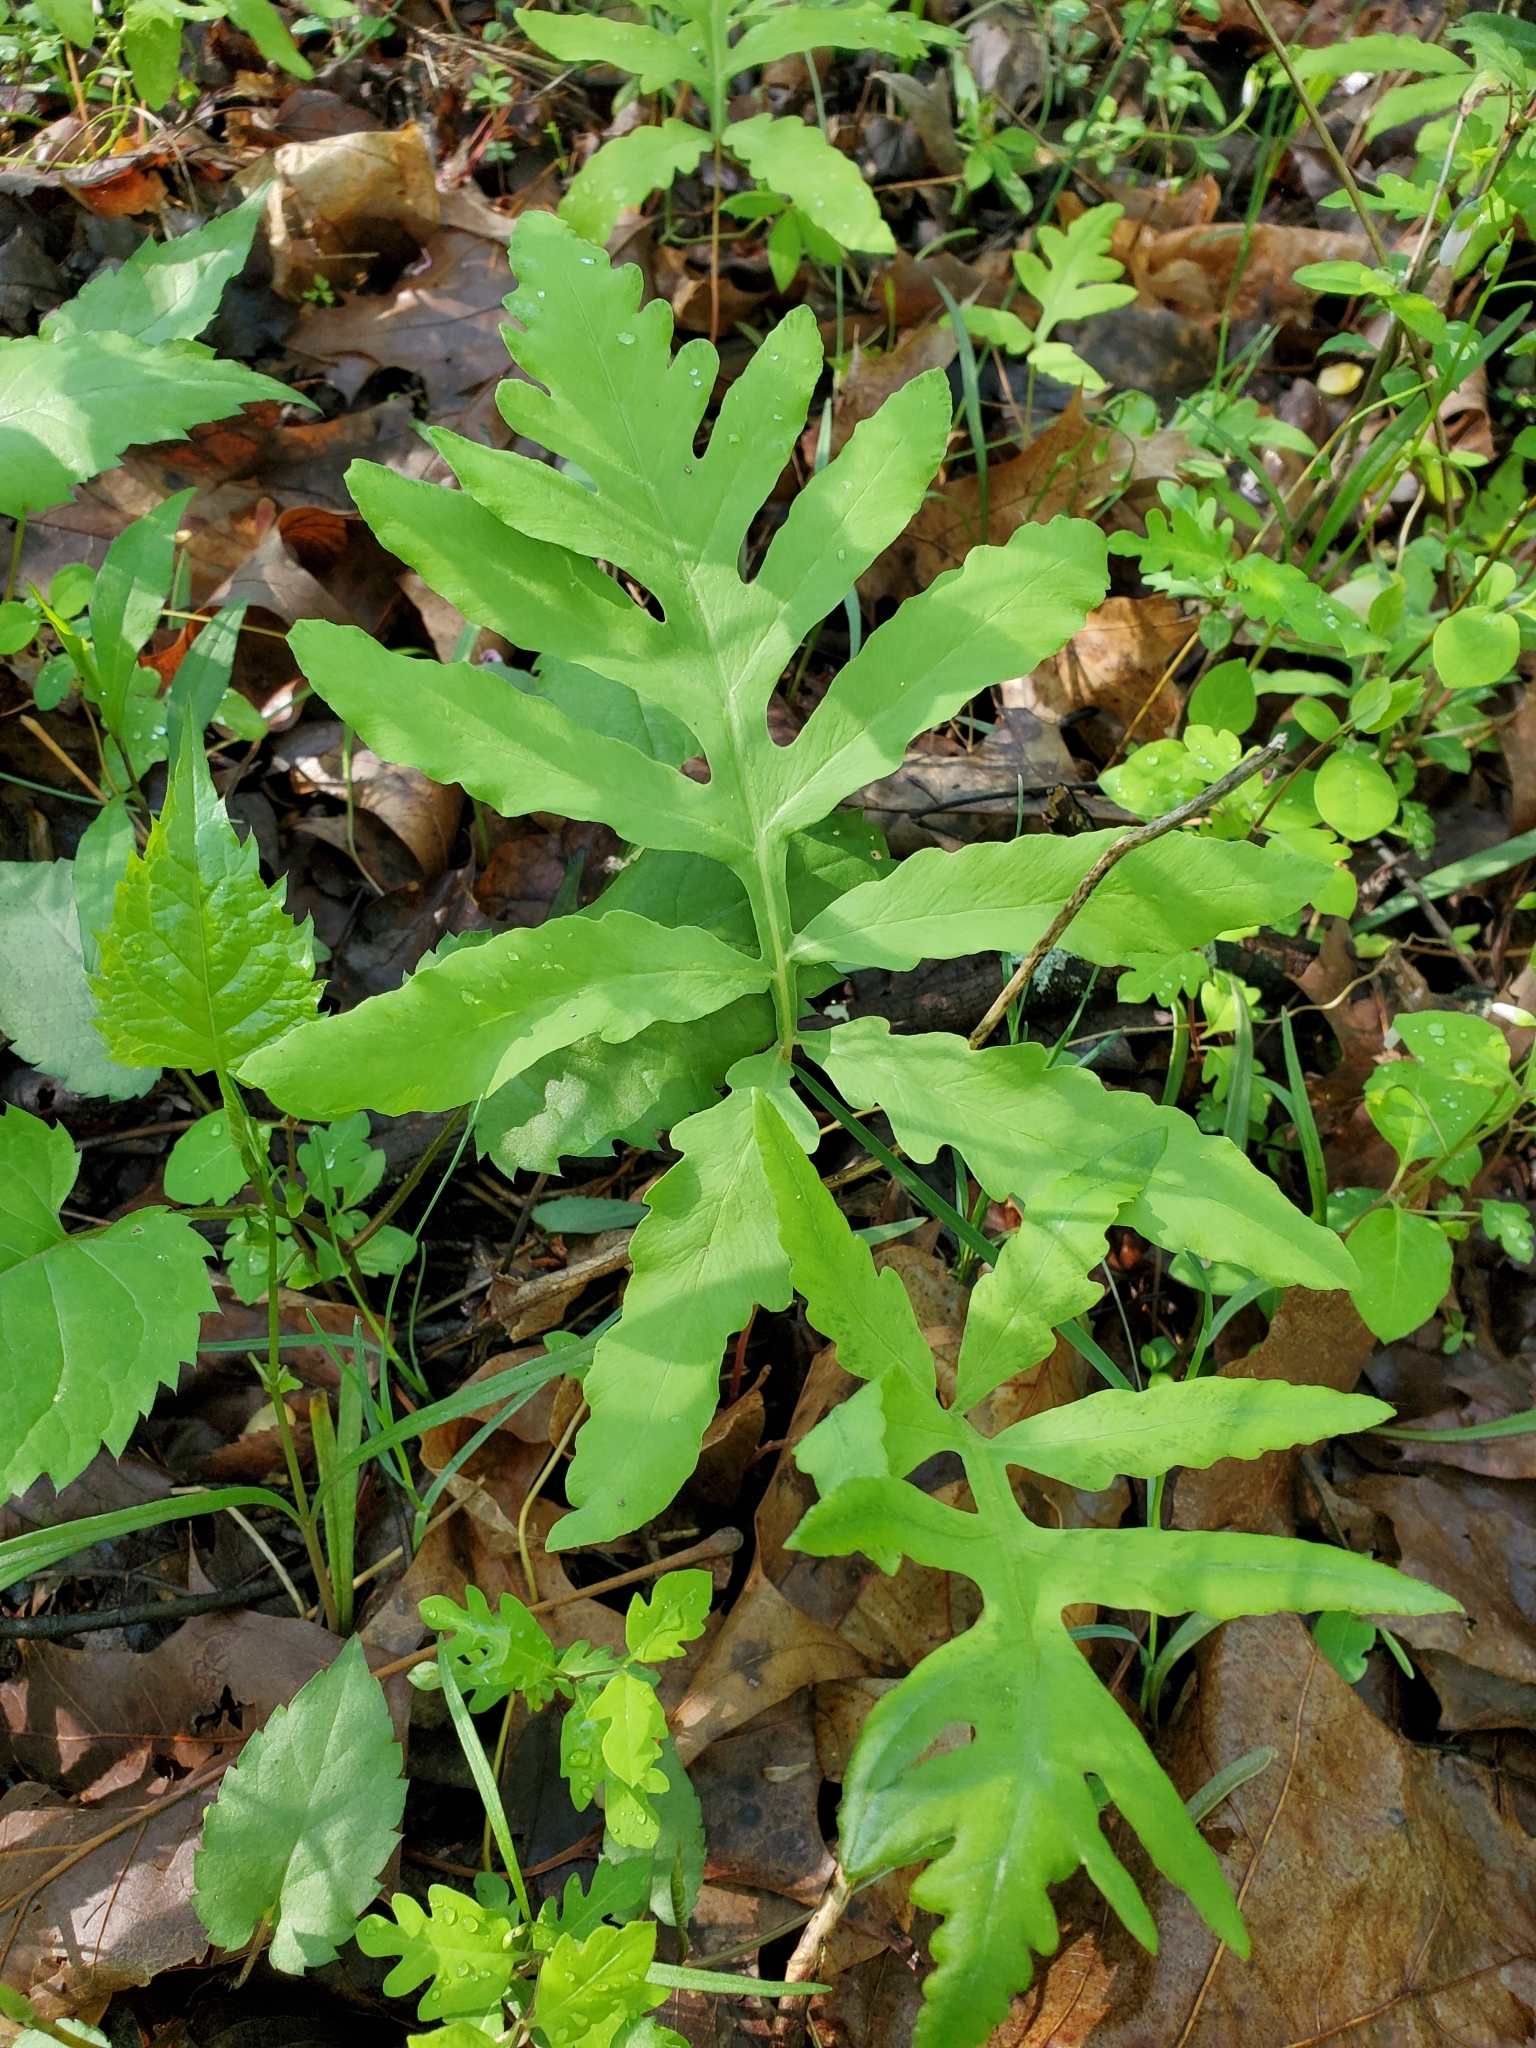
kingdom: Plantae
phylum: Tracheophyta
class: Polypodiopsida
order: Polypodiales
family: Onocleaceae
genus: Onoclea
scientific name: Onoclea sensibilis
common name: Sensitive fern
